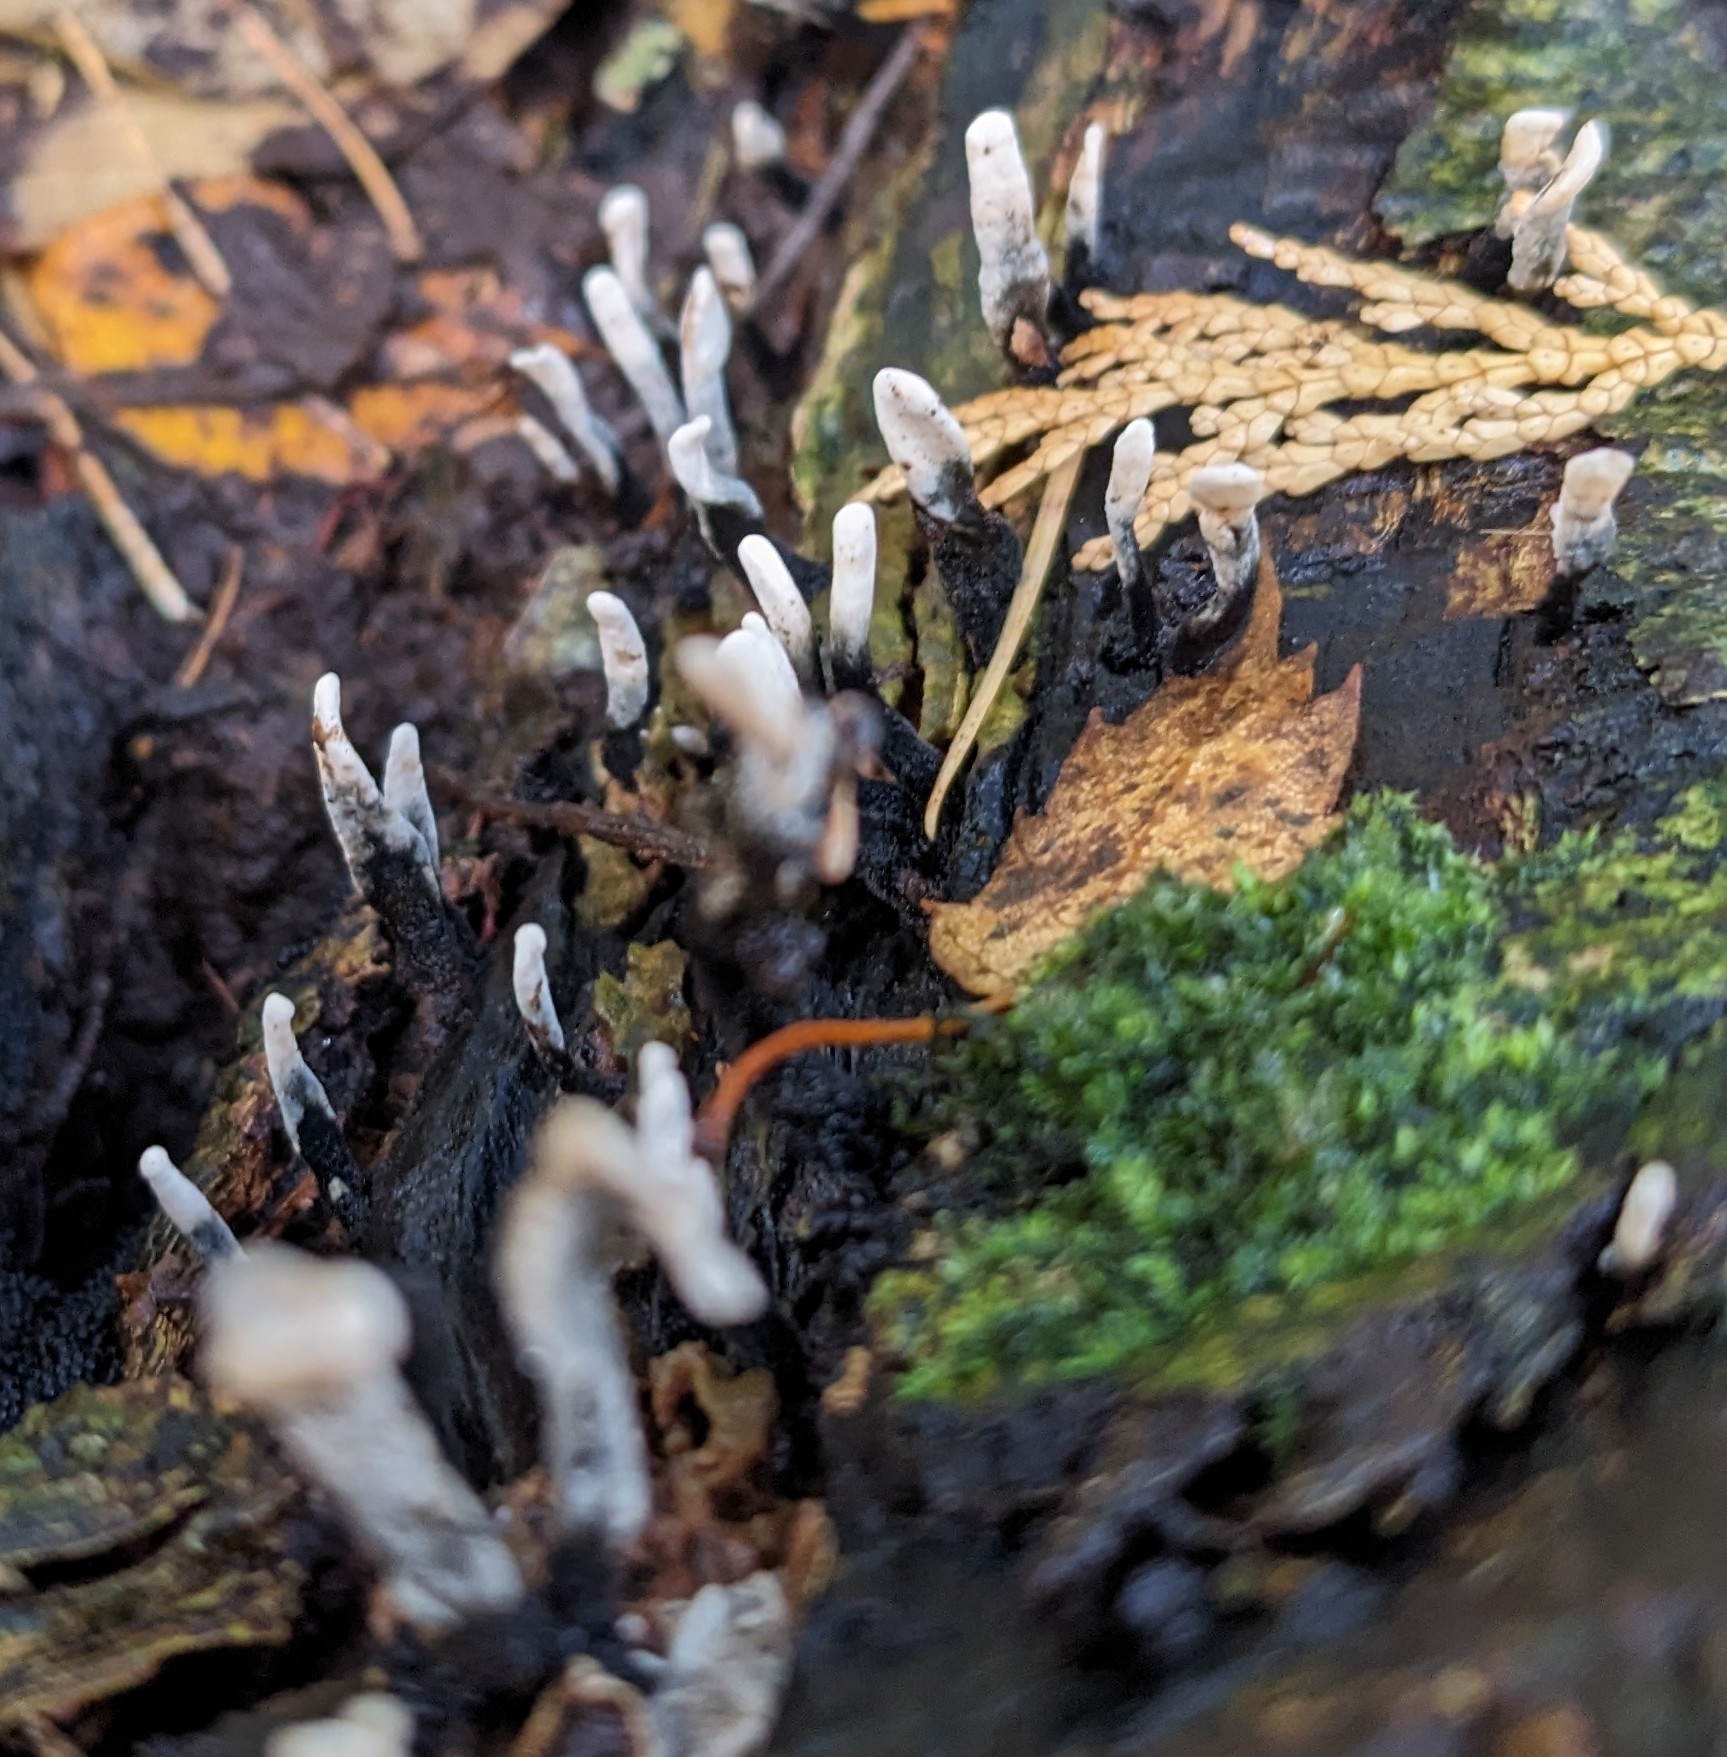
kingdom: Fungi
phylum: Ascomycota
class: Sordariomycetes
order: Xylariales
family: Xylariaceae
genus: Xylaria
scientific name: Xylaria hypoxylon
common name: Candle-snuff fungus
